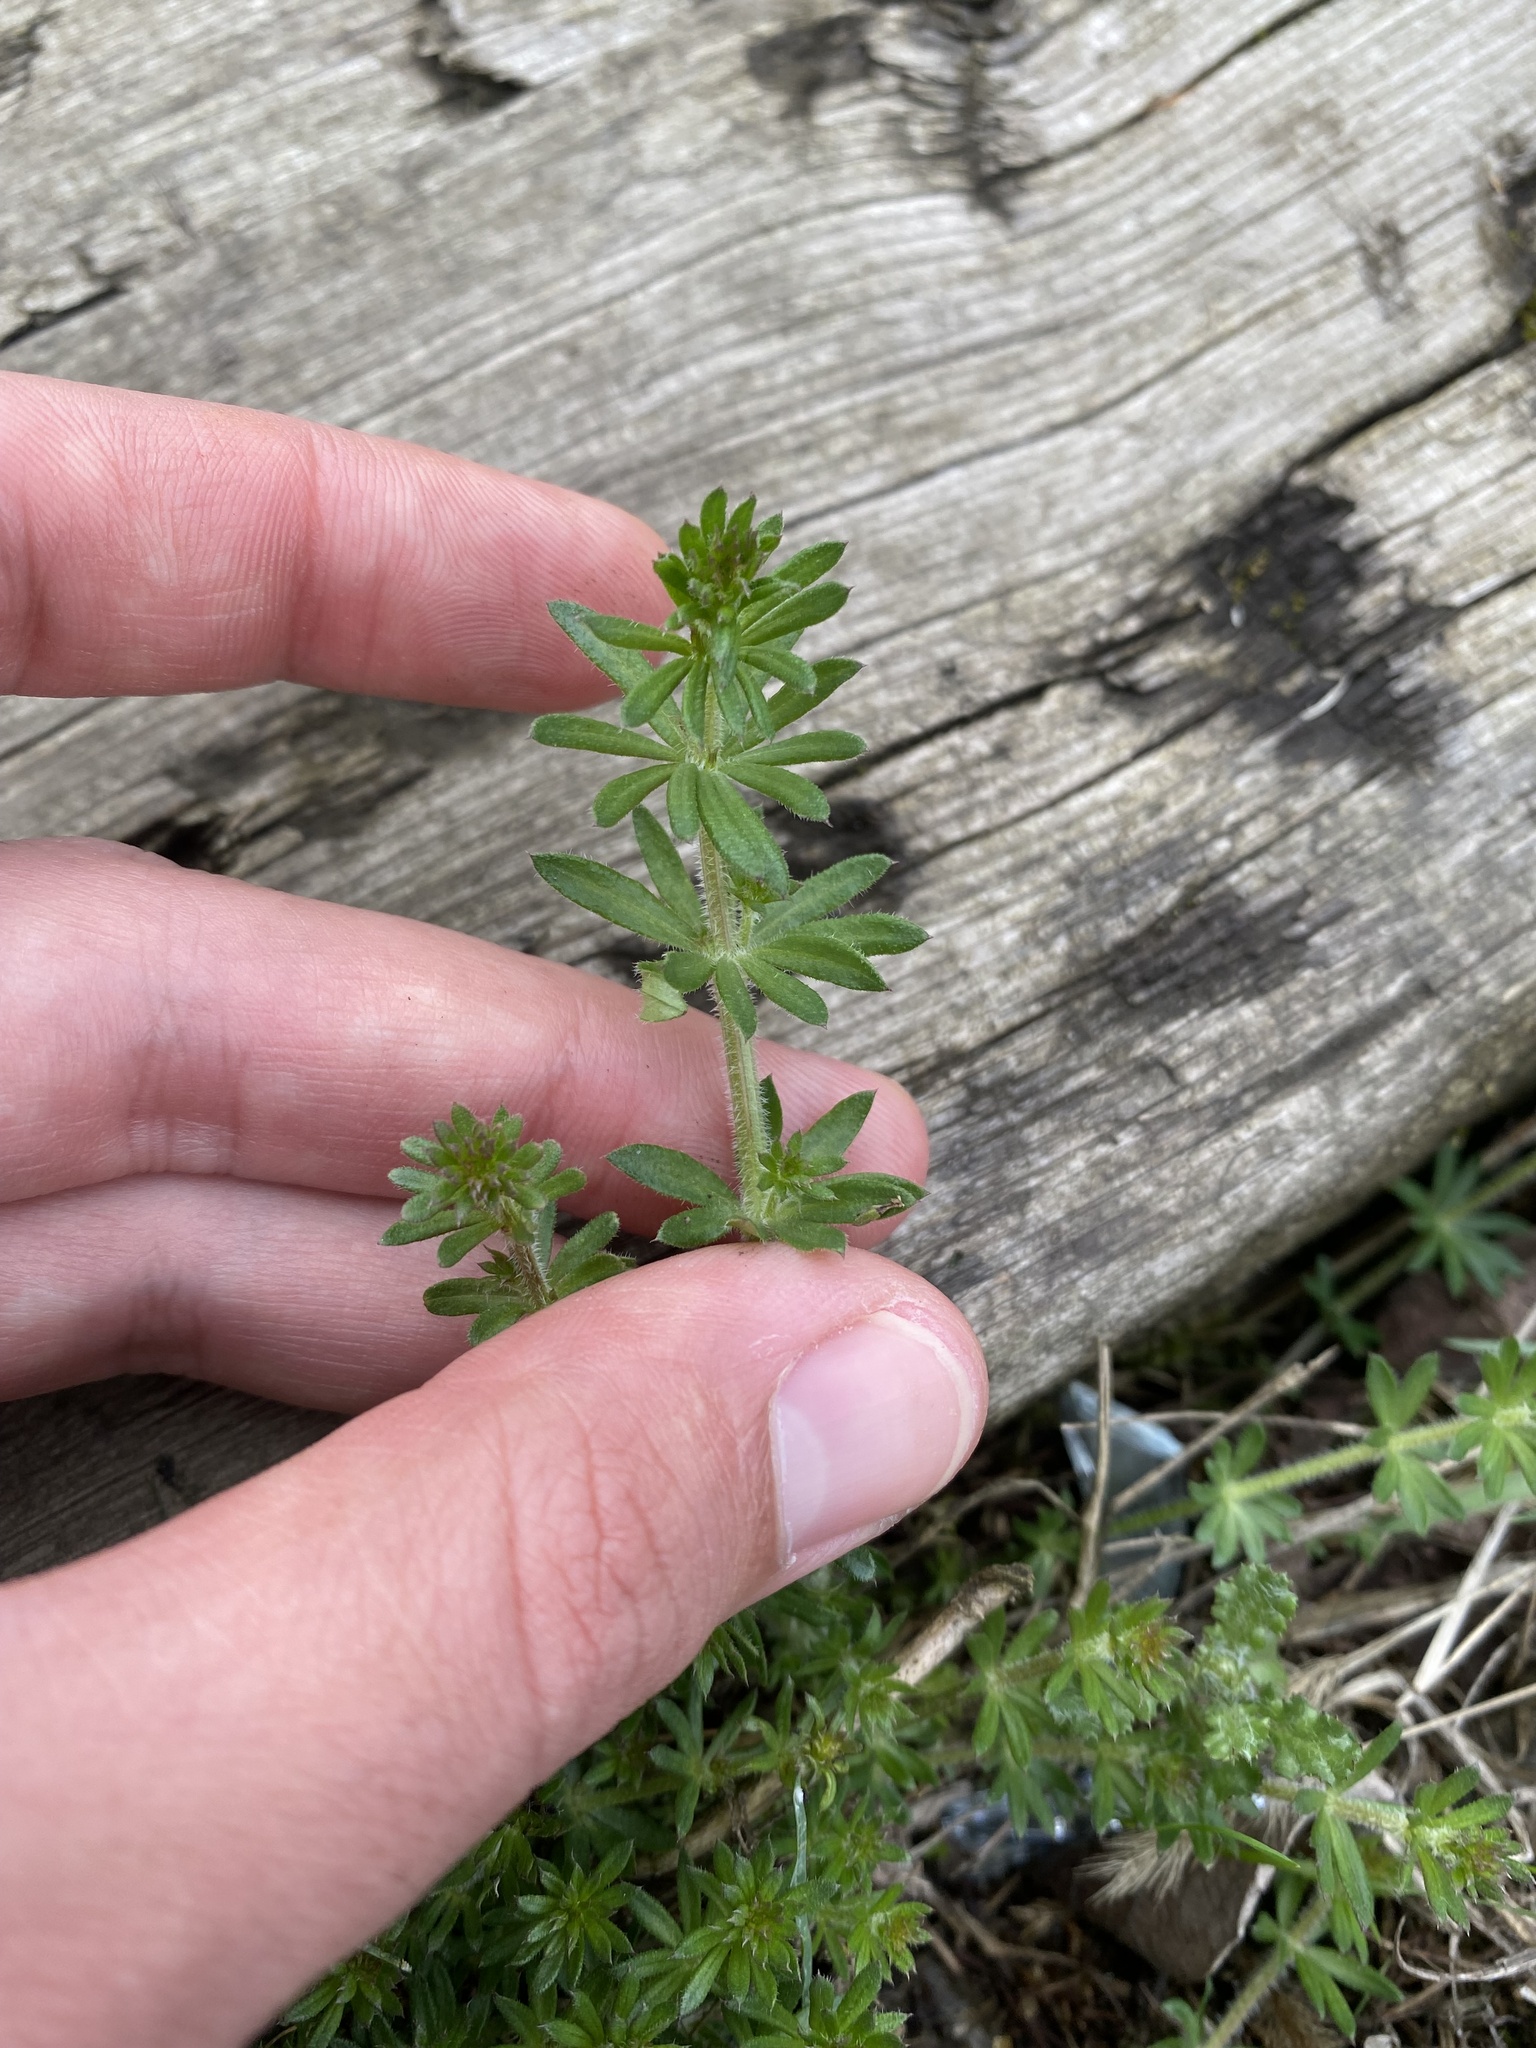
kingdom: Plantae
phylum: Tracheophyta
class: Magnoliopsida
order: Gentianales
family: Rubiaceae
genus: Galium
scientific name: Galium humifusum
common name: Spreading bedstraw
